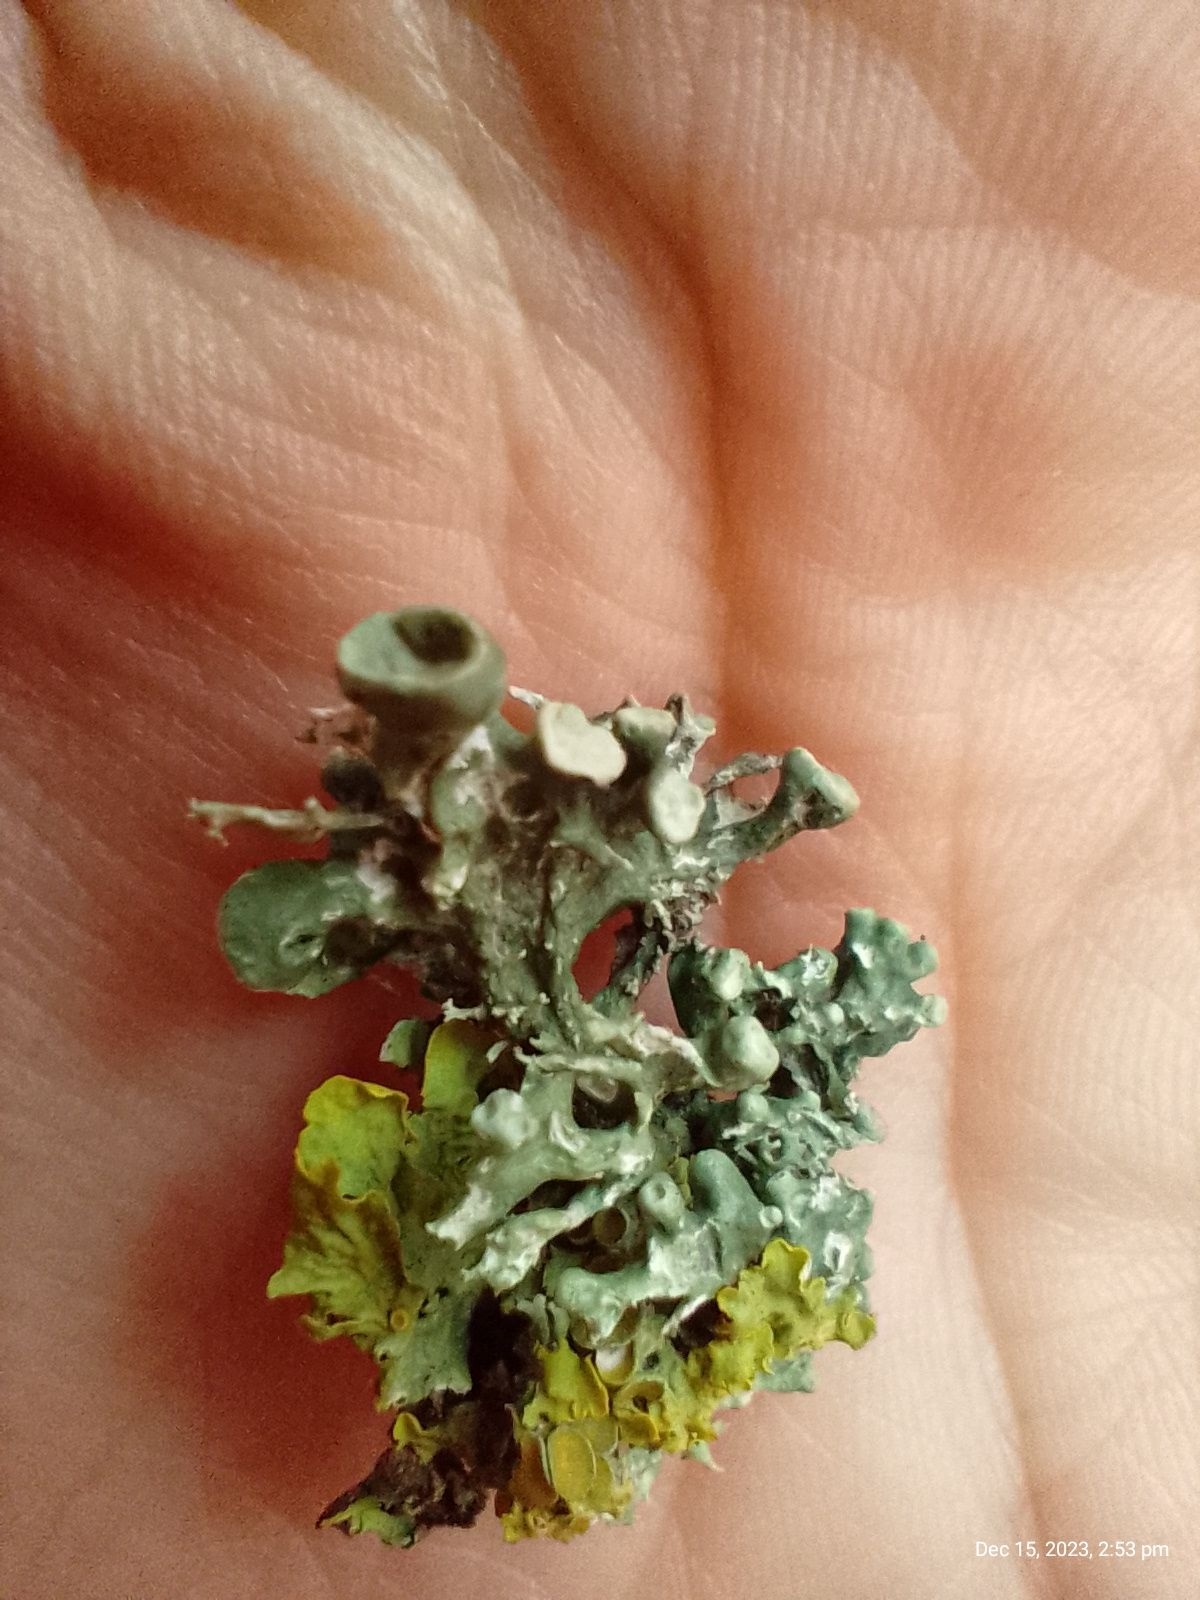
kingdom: Fungi
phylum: Ascomycota
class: Lecanoromycetes
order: Lecanorales
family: Ramalinaceae
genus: Ramalina
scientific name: Ramalina fastigiata
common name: Dotted ribbon lichen
